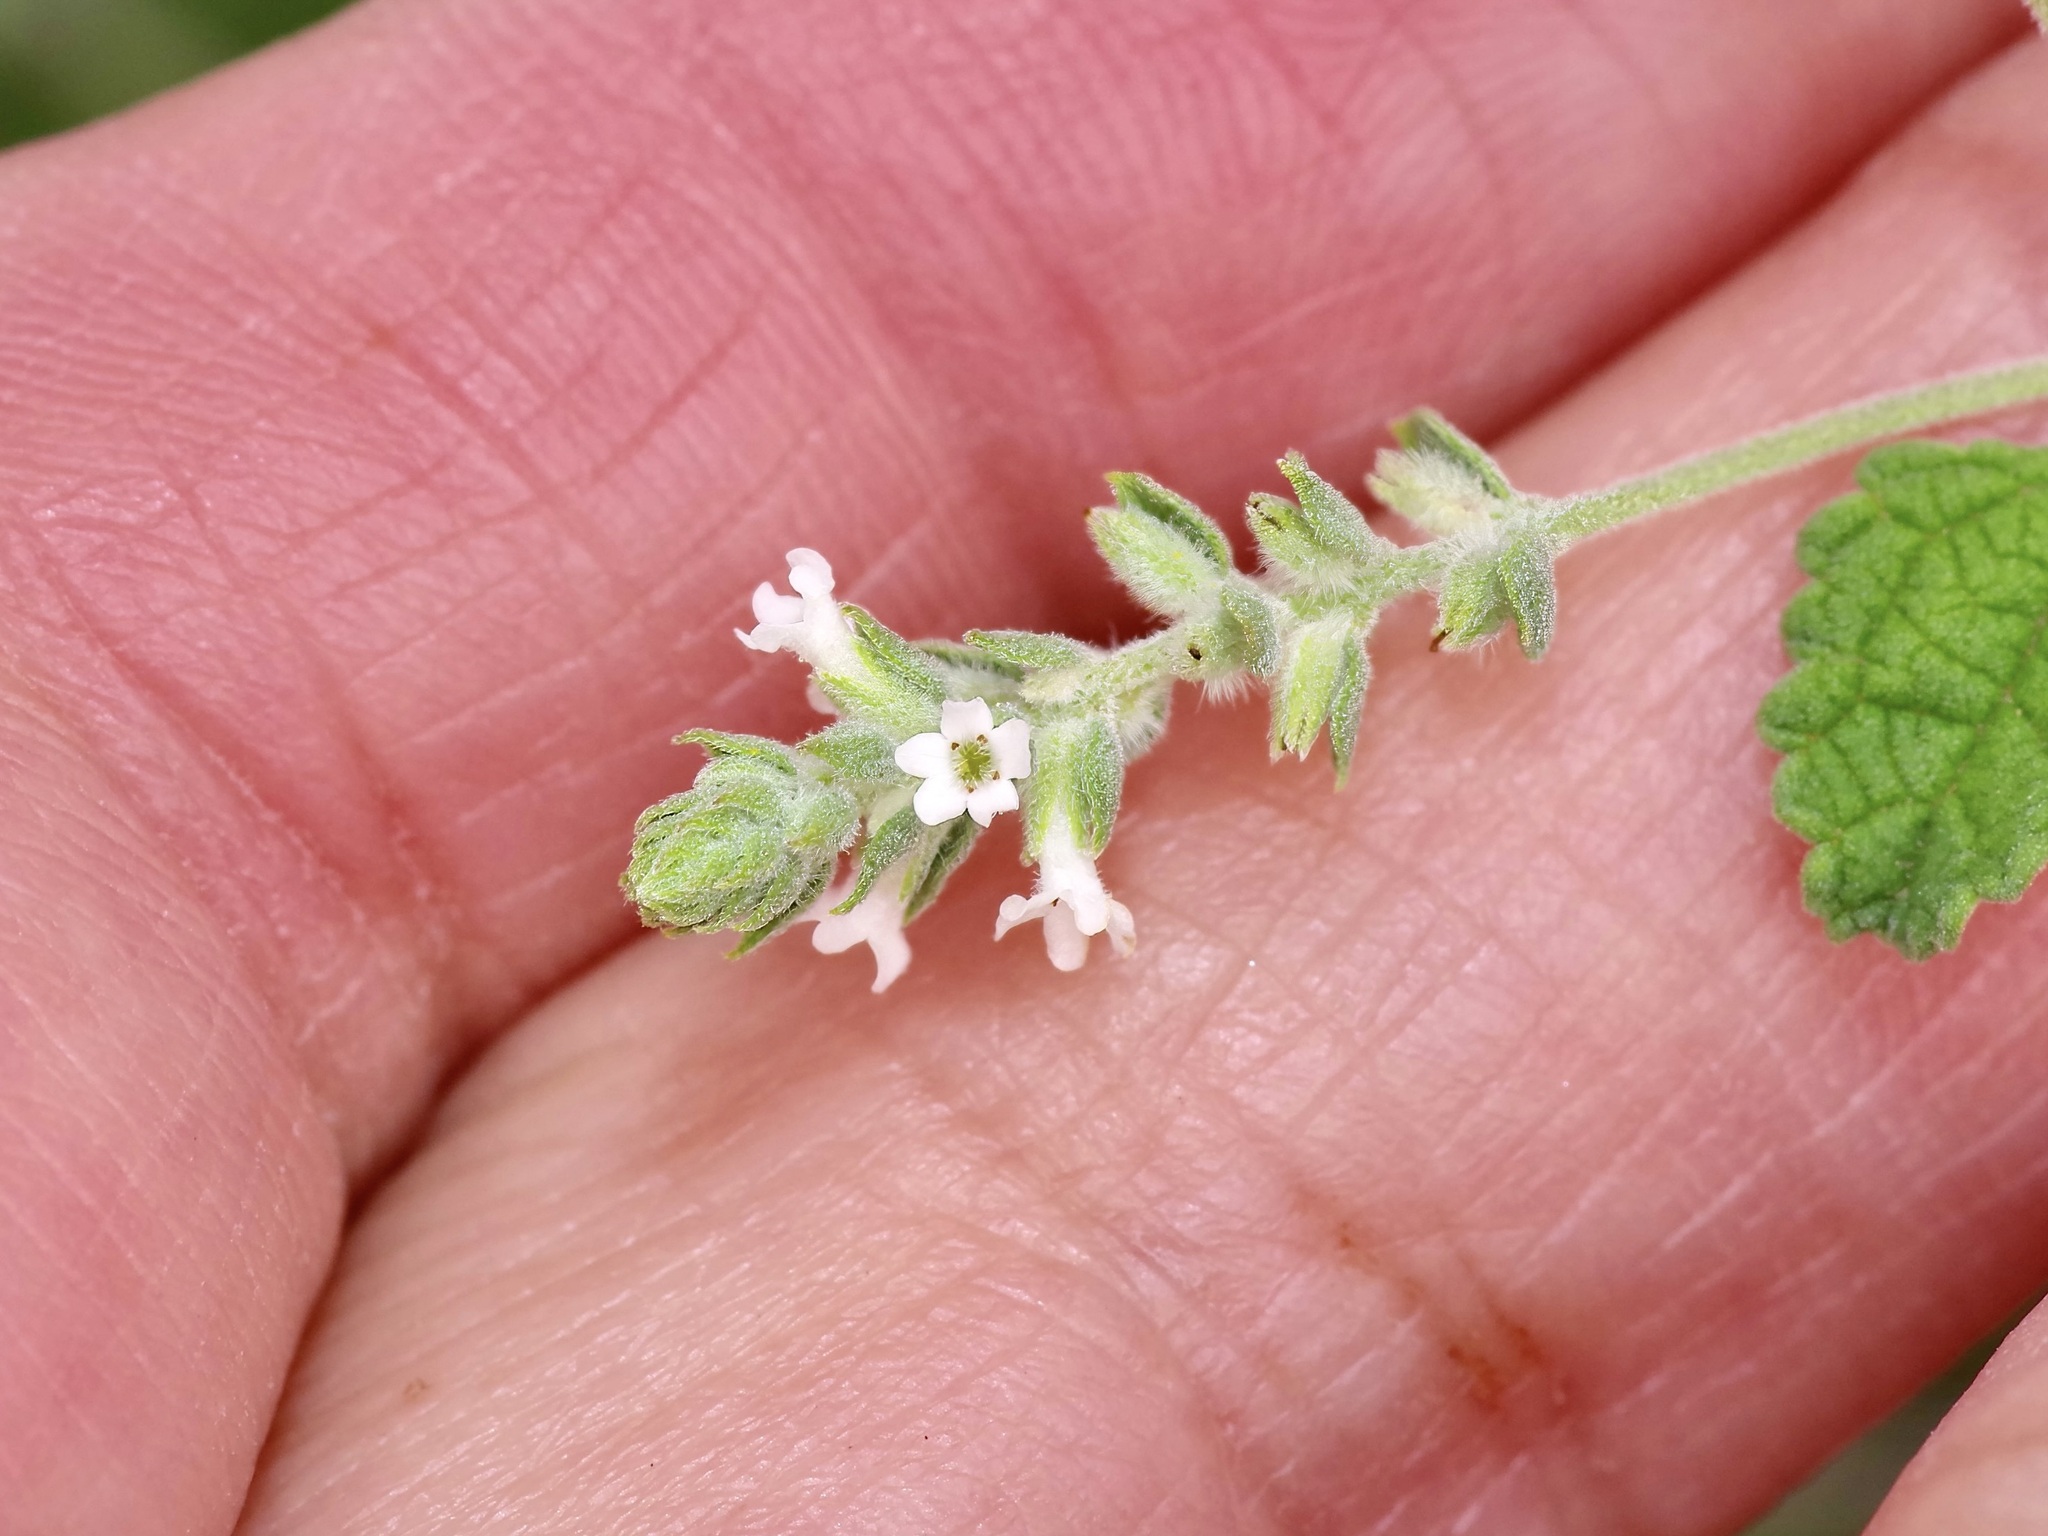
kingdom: Plantae
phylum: Tracheophyta
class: Magnoliopsida
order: Lamiales
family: Verbenaceae
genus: Aloysia
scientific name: Aloysia wrightii
